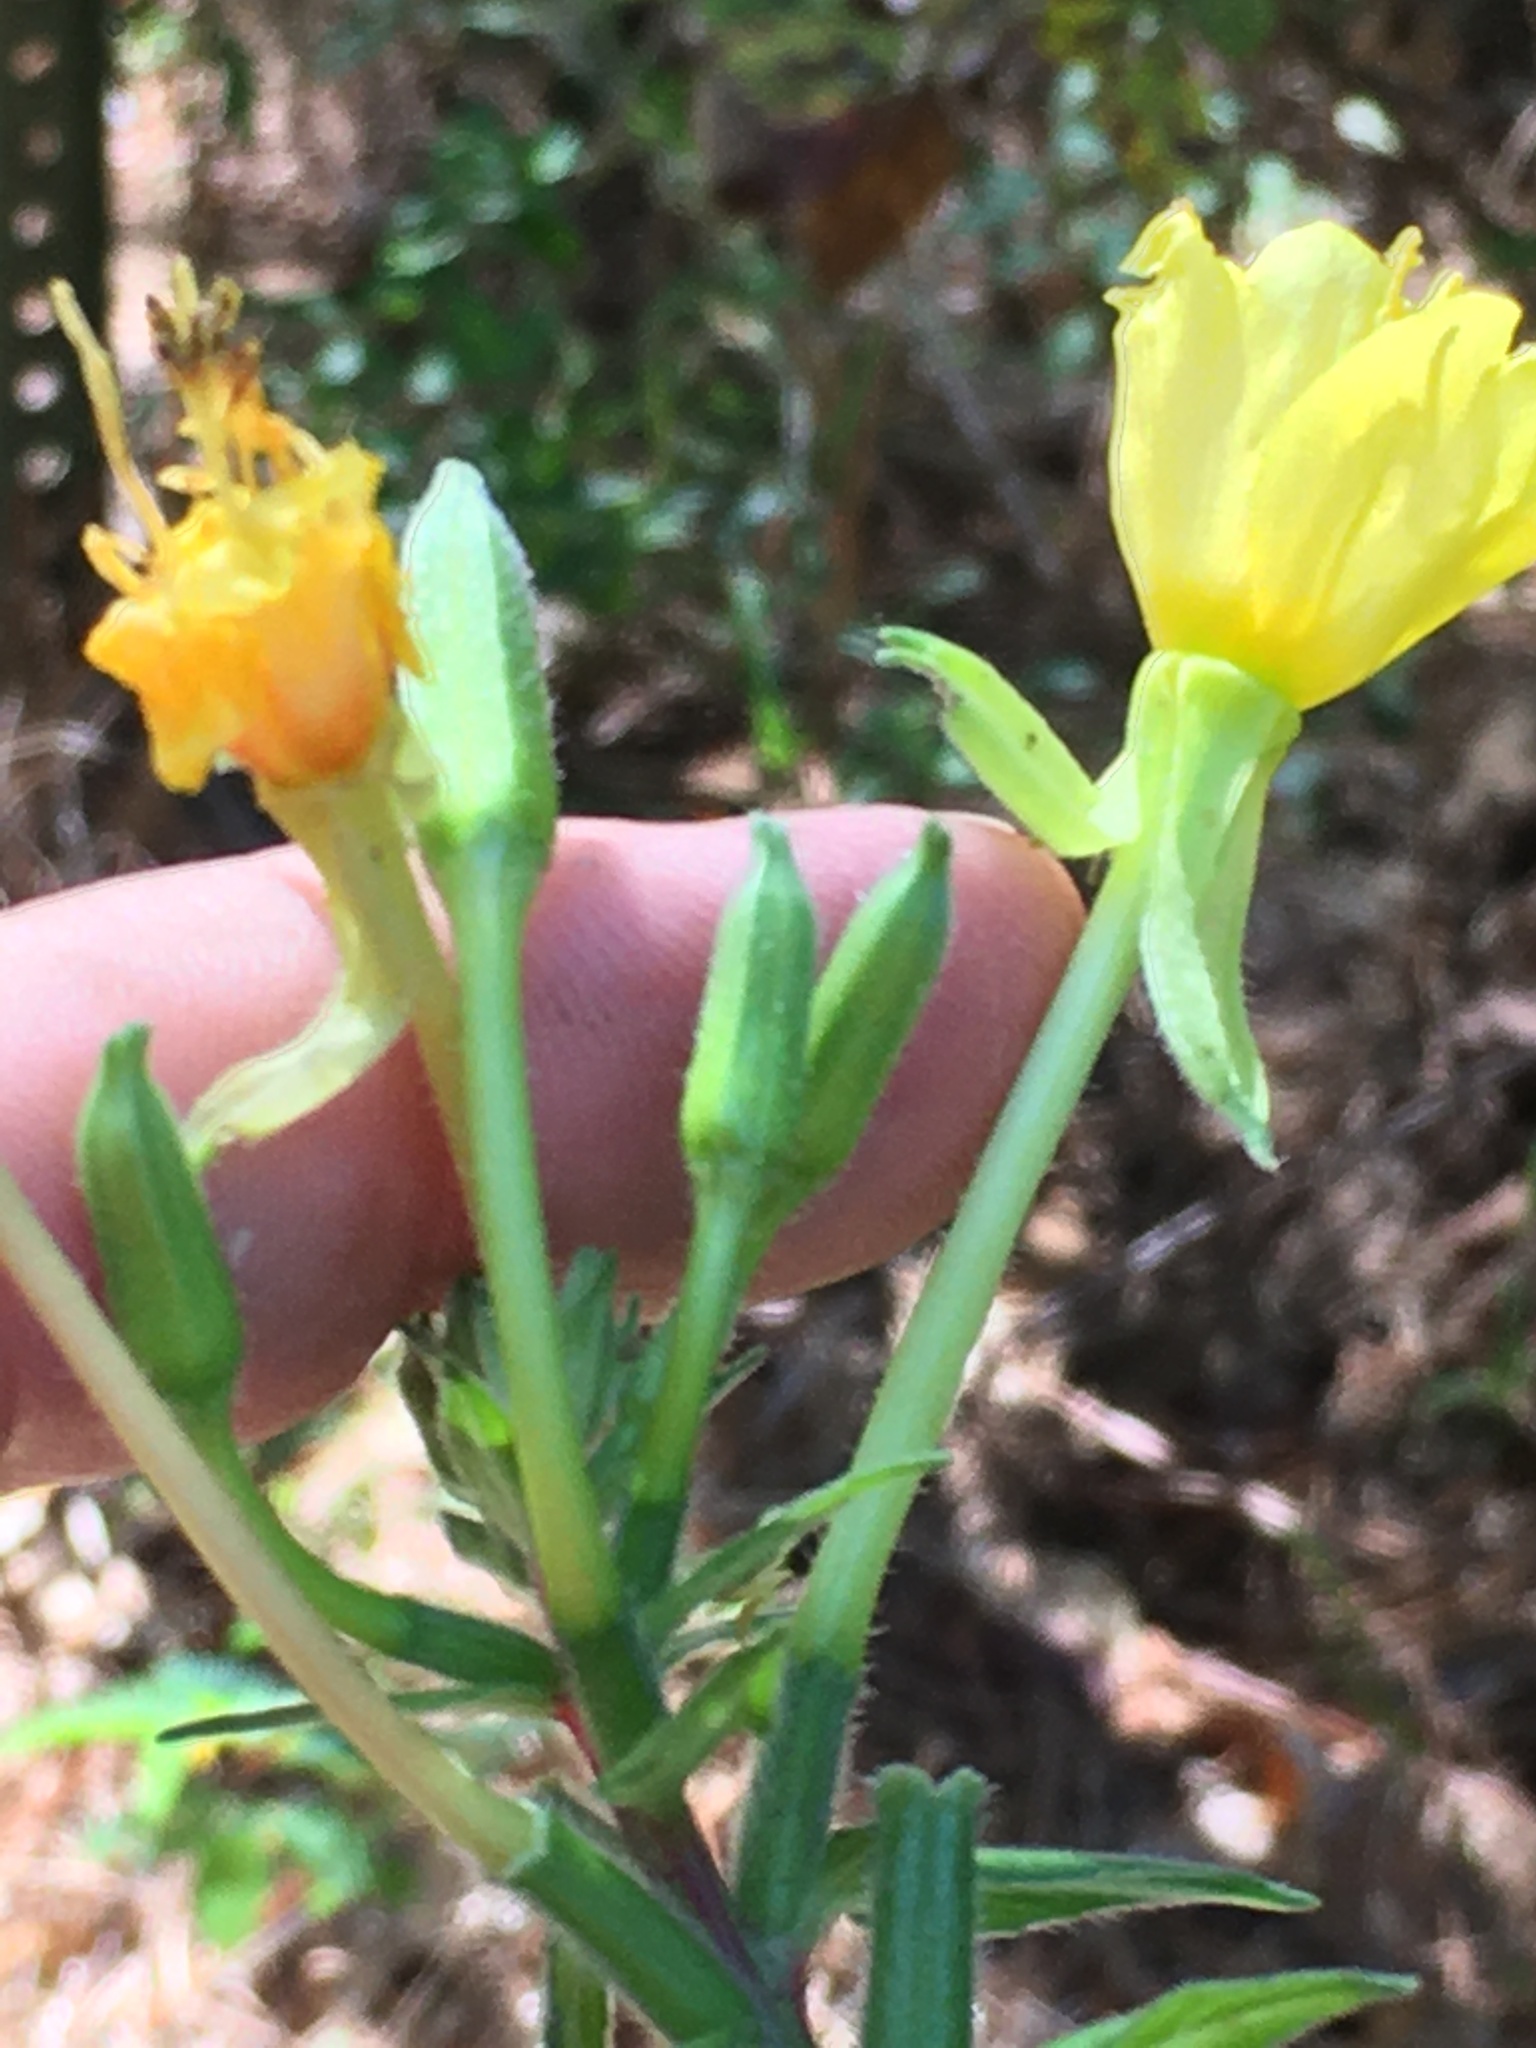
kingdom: Plantae
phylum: Tracheophyta
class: Magnoliopsida
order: Myrtales
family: Onagraceae
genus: Oenothera
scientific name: Oenothera biennis
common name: Common evening-primrose
